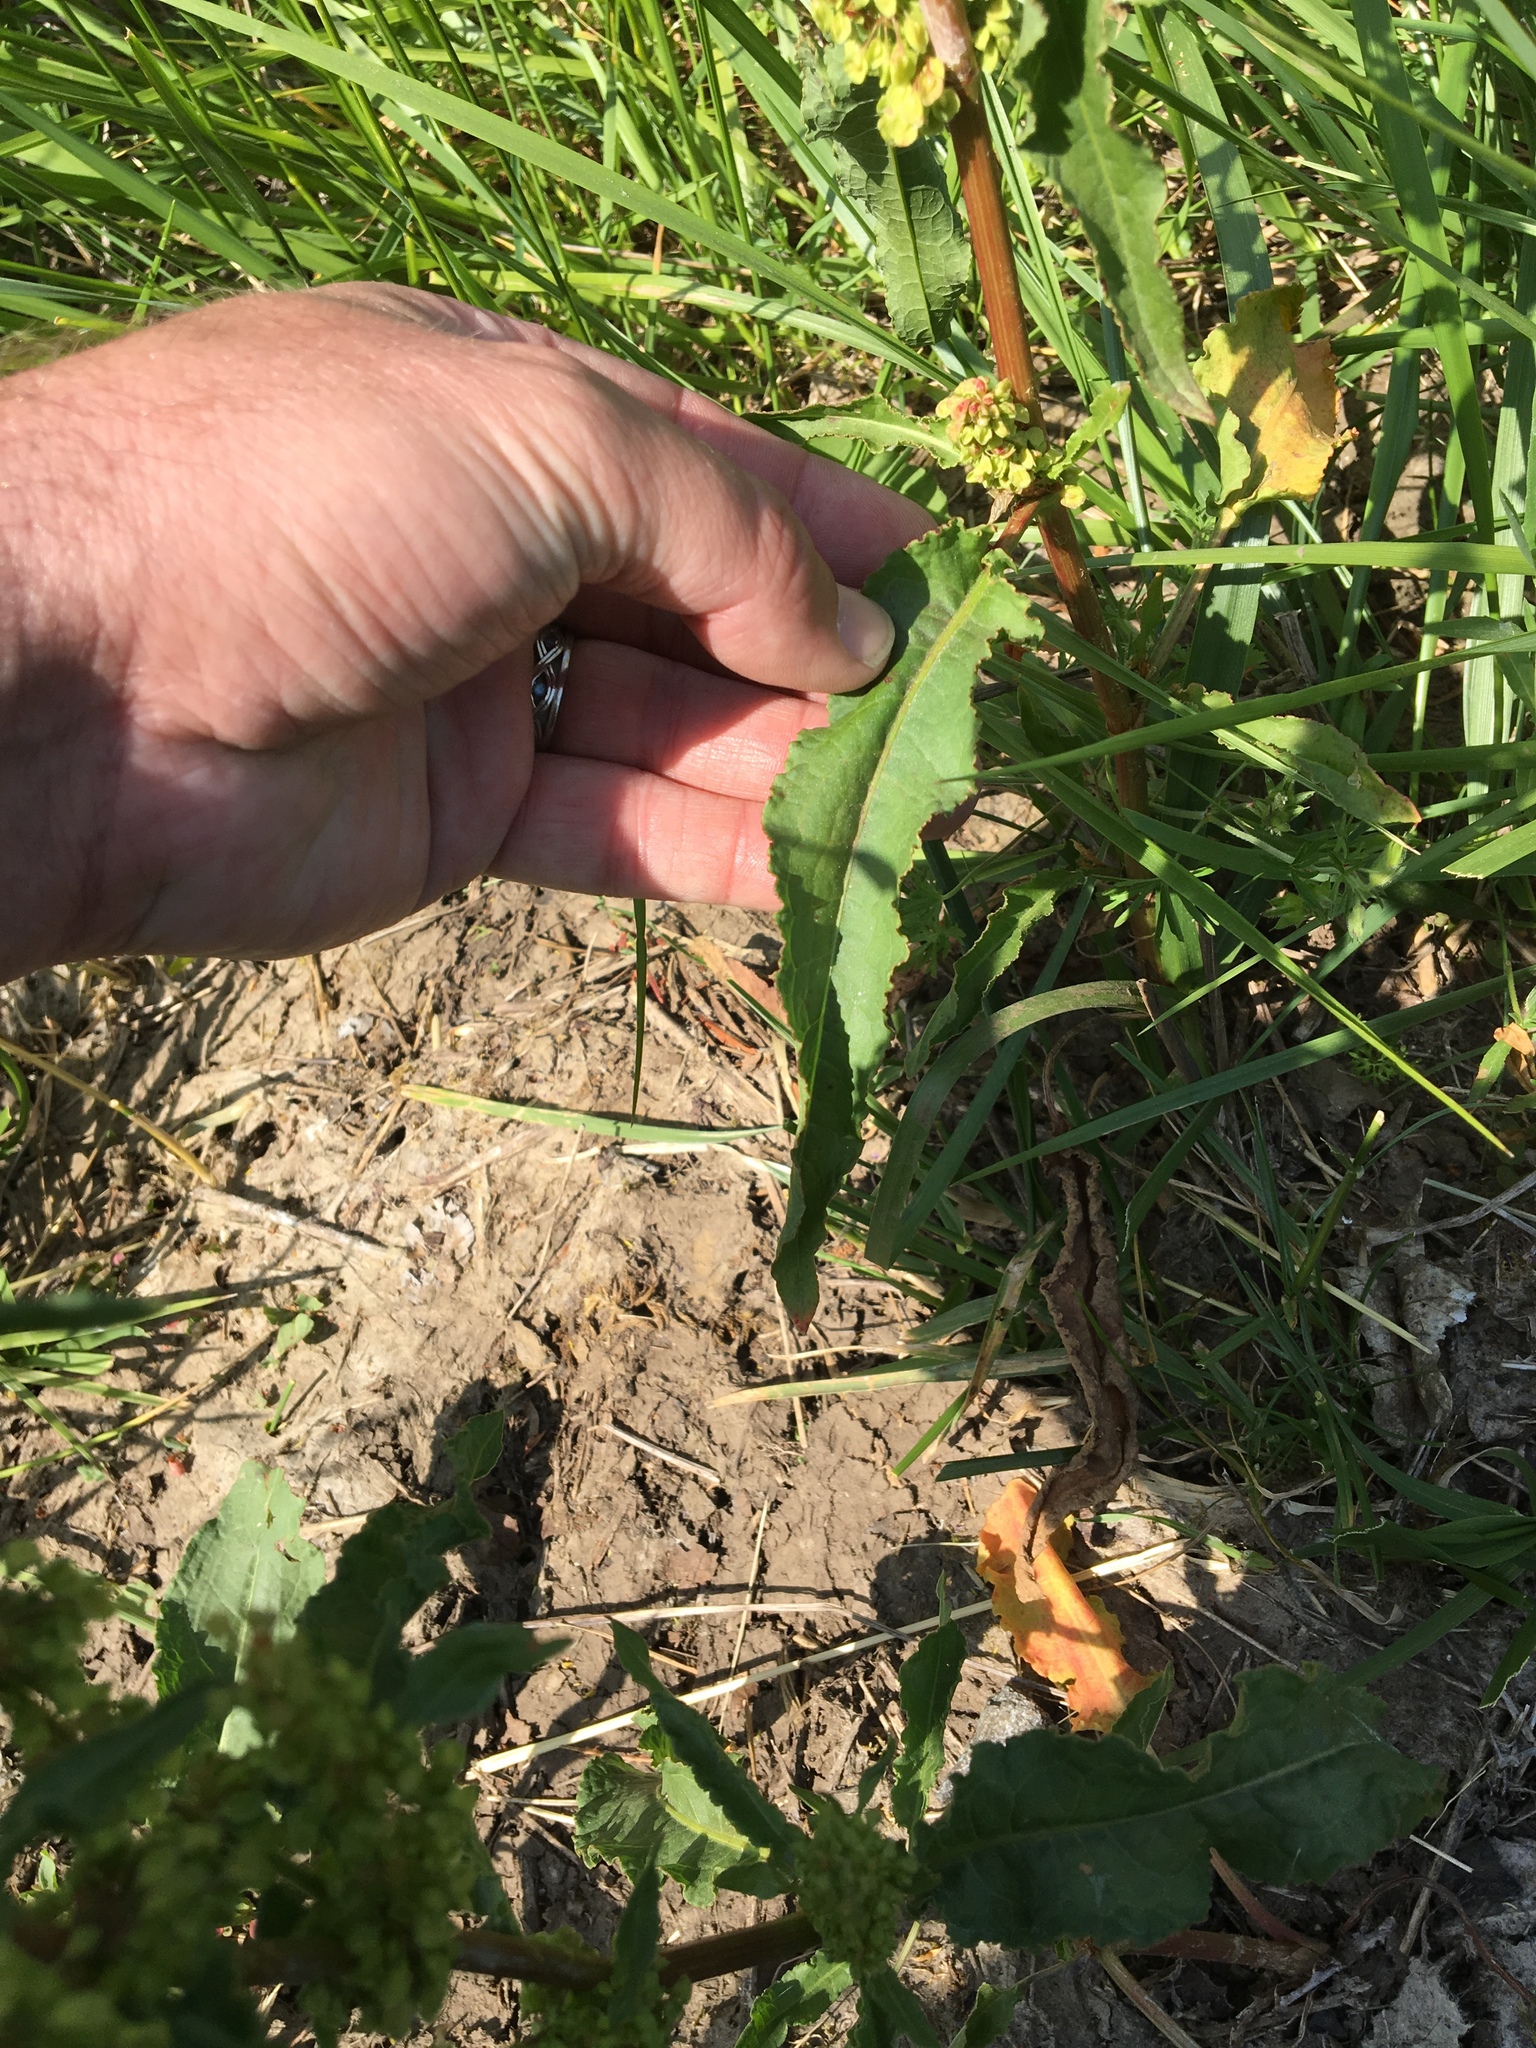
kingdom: Plantae
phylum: Tracheophyta
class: Magnoliopsida
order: Caryophyllales
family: Polygonaceae
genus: Rumex
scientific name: Rumex crispus
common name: Curled dock
